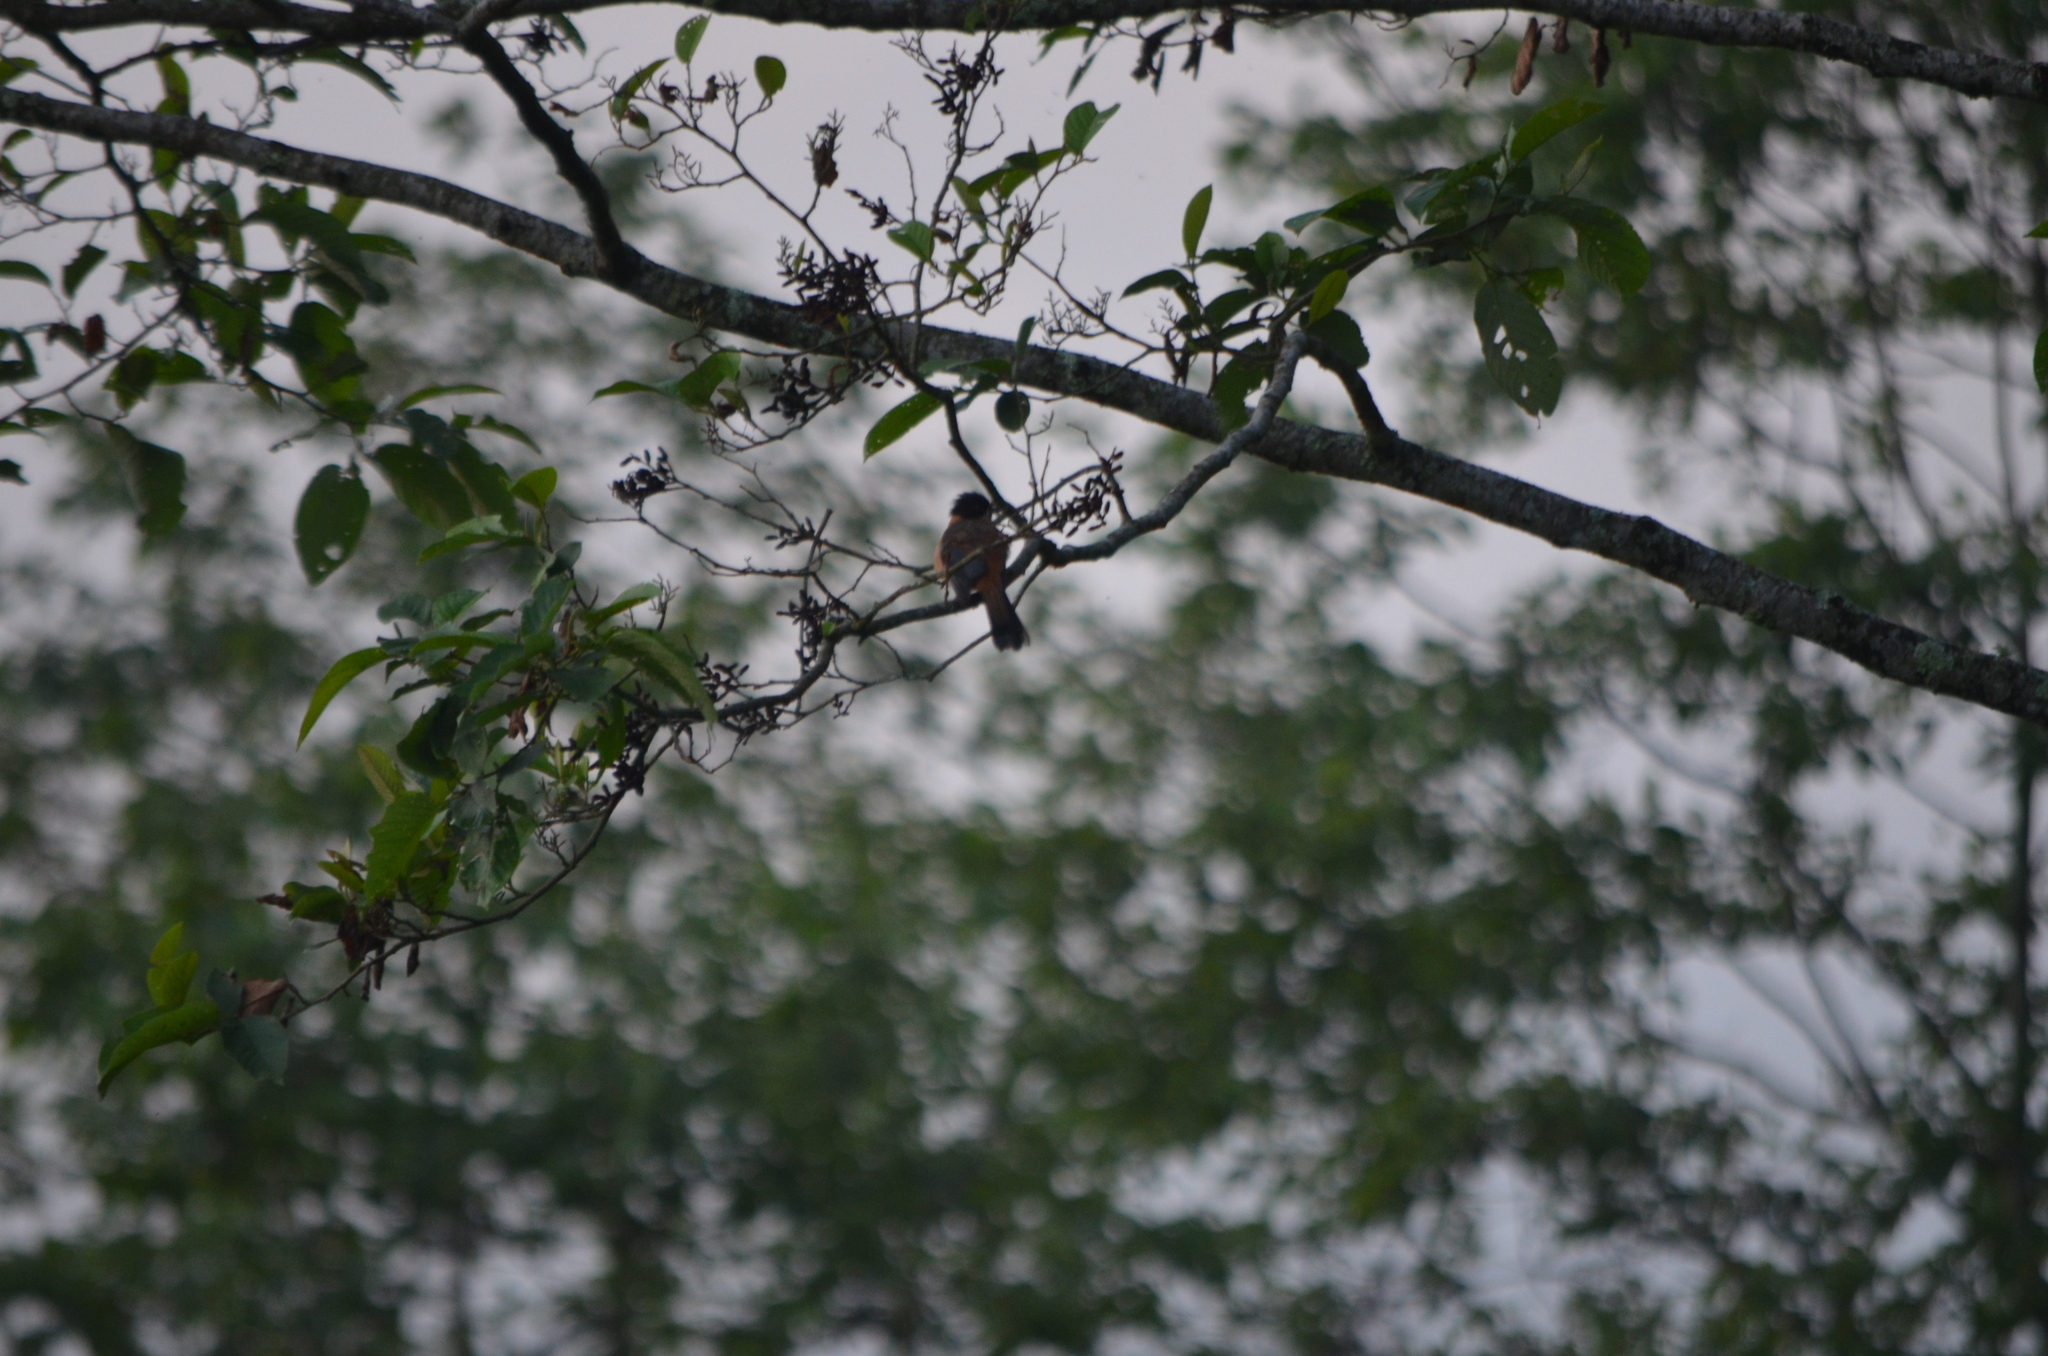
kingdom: Animalia
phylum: Chordata
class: Aves
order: Passeriformes
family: Leiothrichidae
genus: Heterophasia
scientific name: Heterophasia capistrata
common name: Rufous sibia
